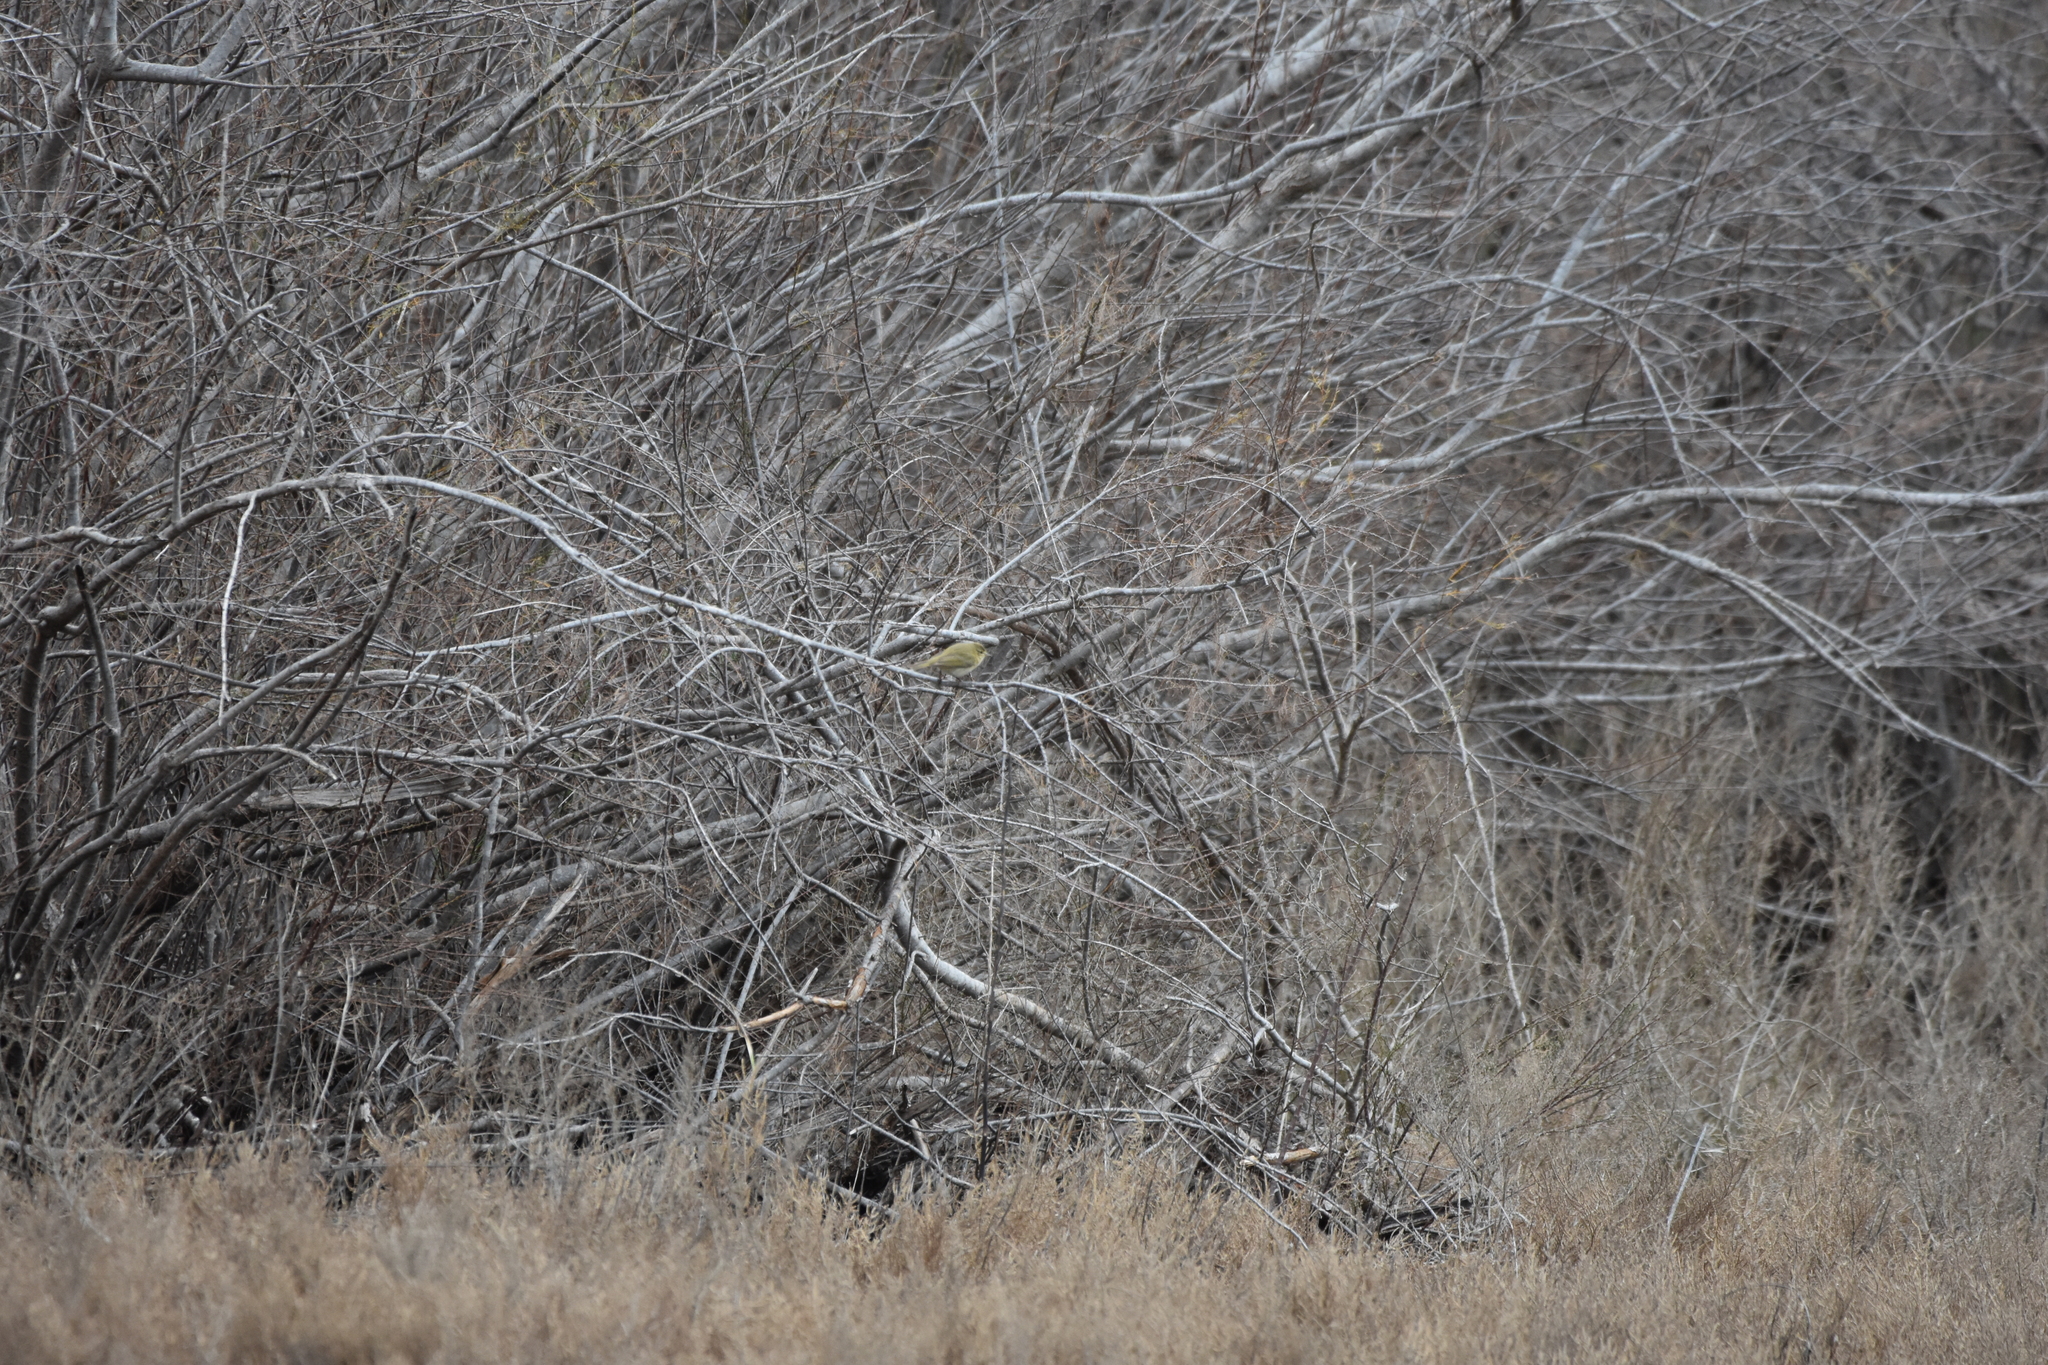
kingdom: Animalia
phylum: Chordata
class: Aves
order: Passeriformes
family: Phylloscopidae
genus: Phylloscopus
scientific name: Phylloscopus collybita
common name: Common chiffchaff
